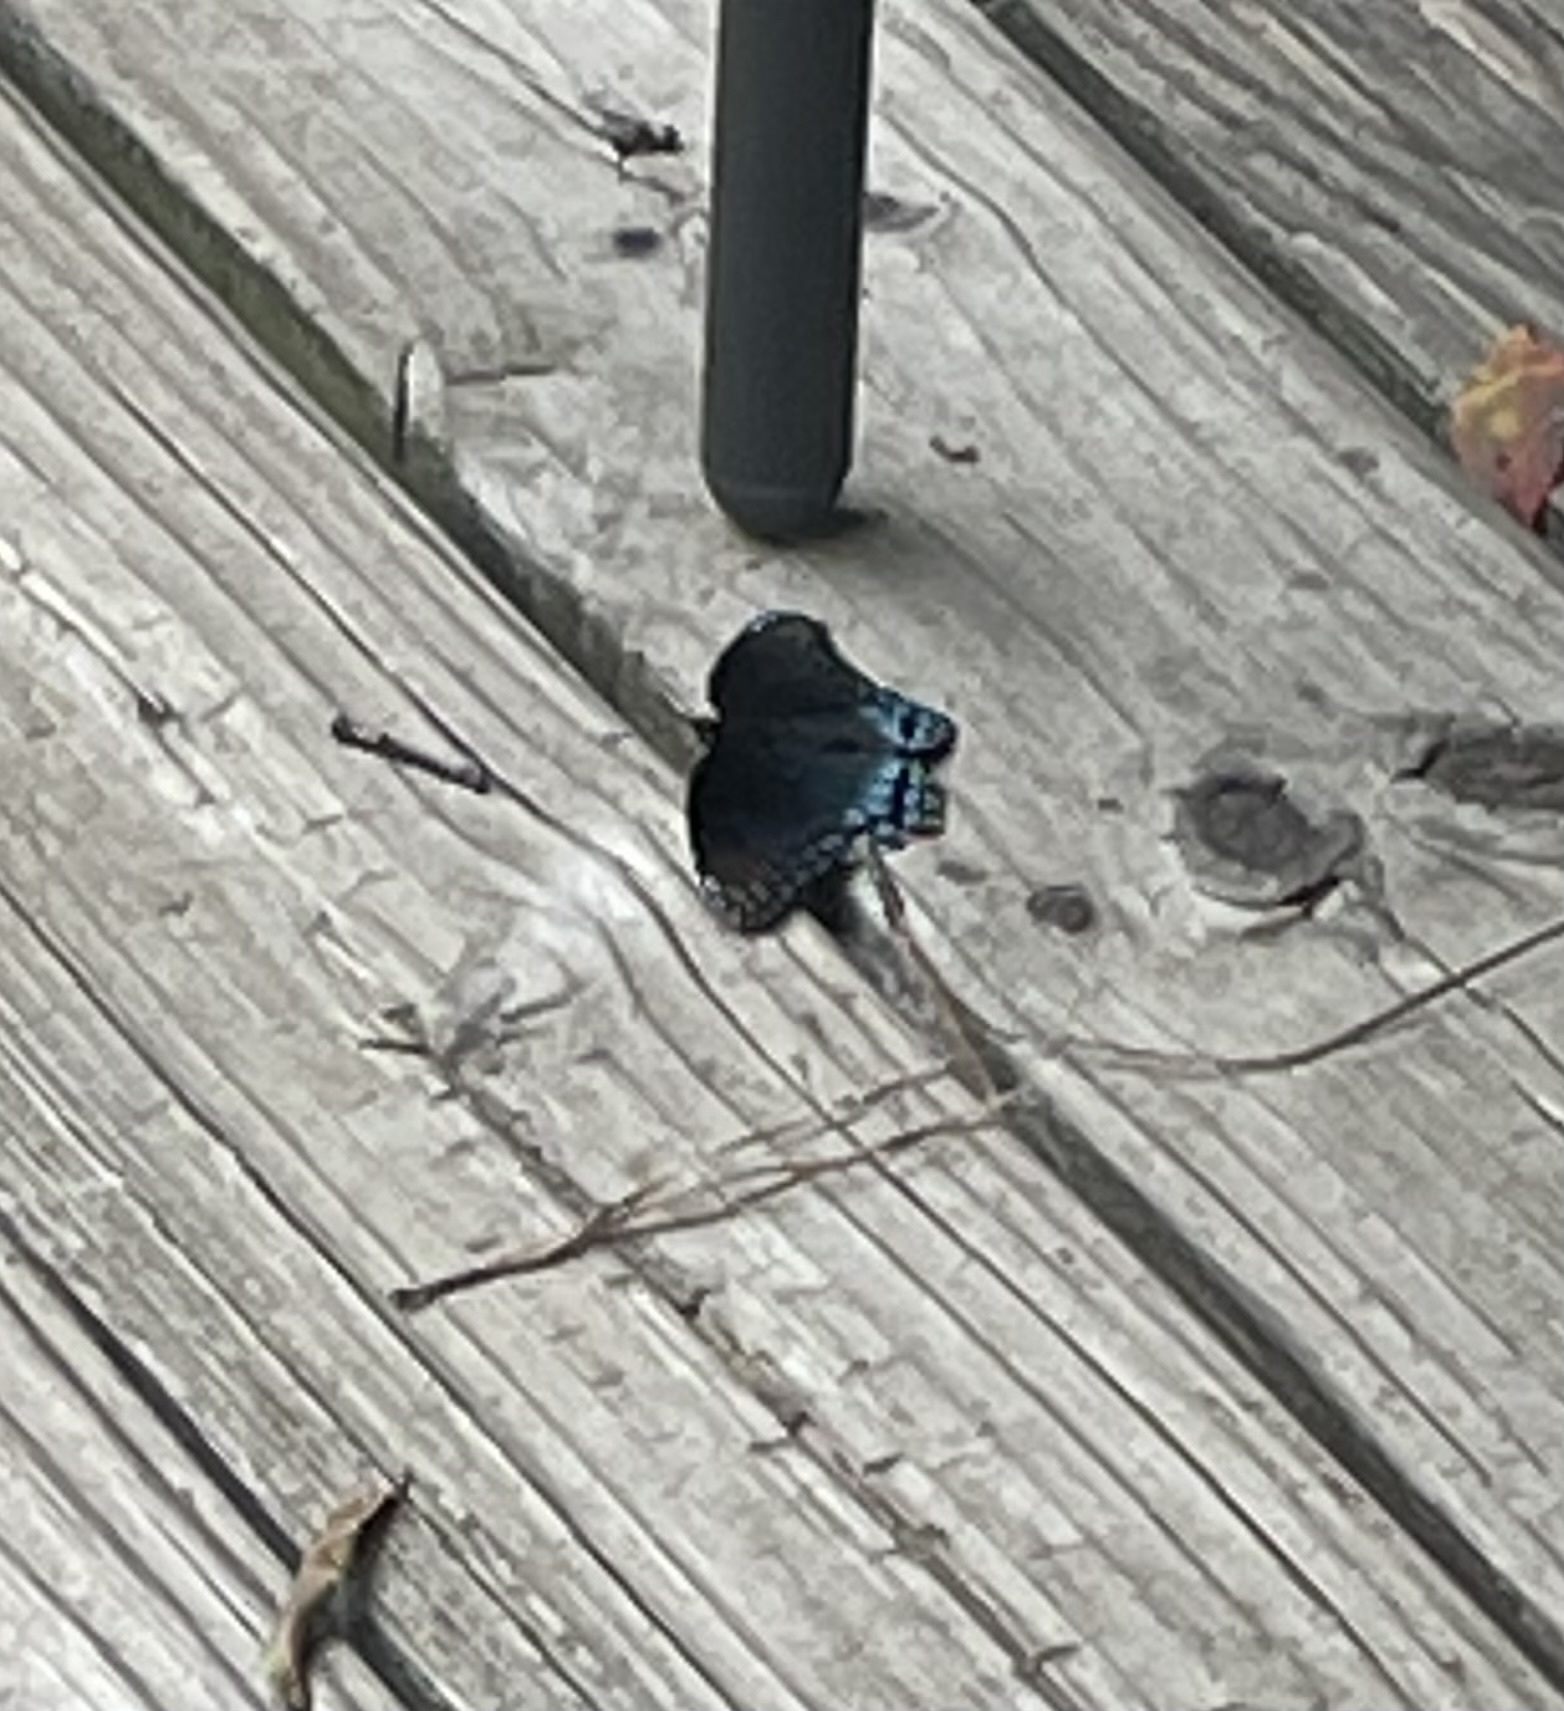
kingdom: Animalia
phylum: Arthropoda
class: Insecta
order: Lepidoptera
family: Nymphalidae
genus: Limenitis
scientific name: Limenitis astyanax
